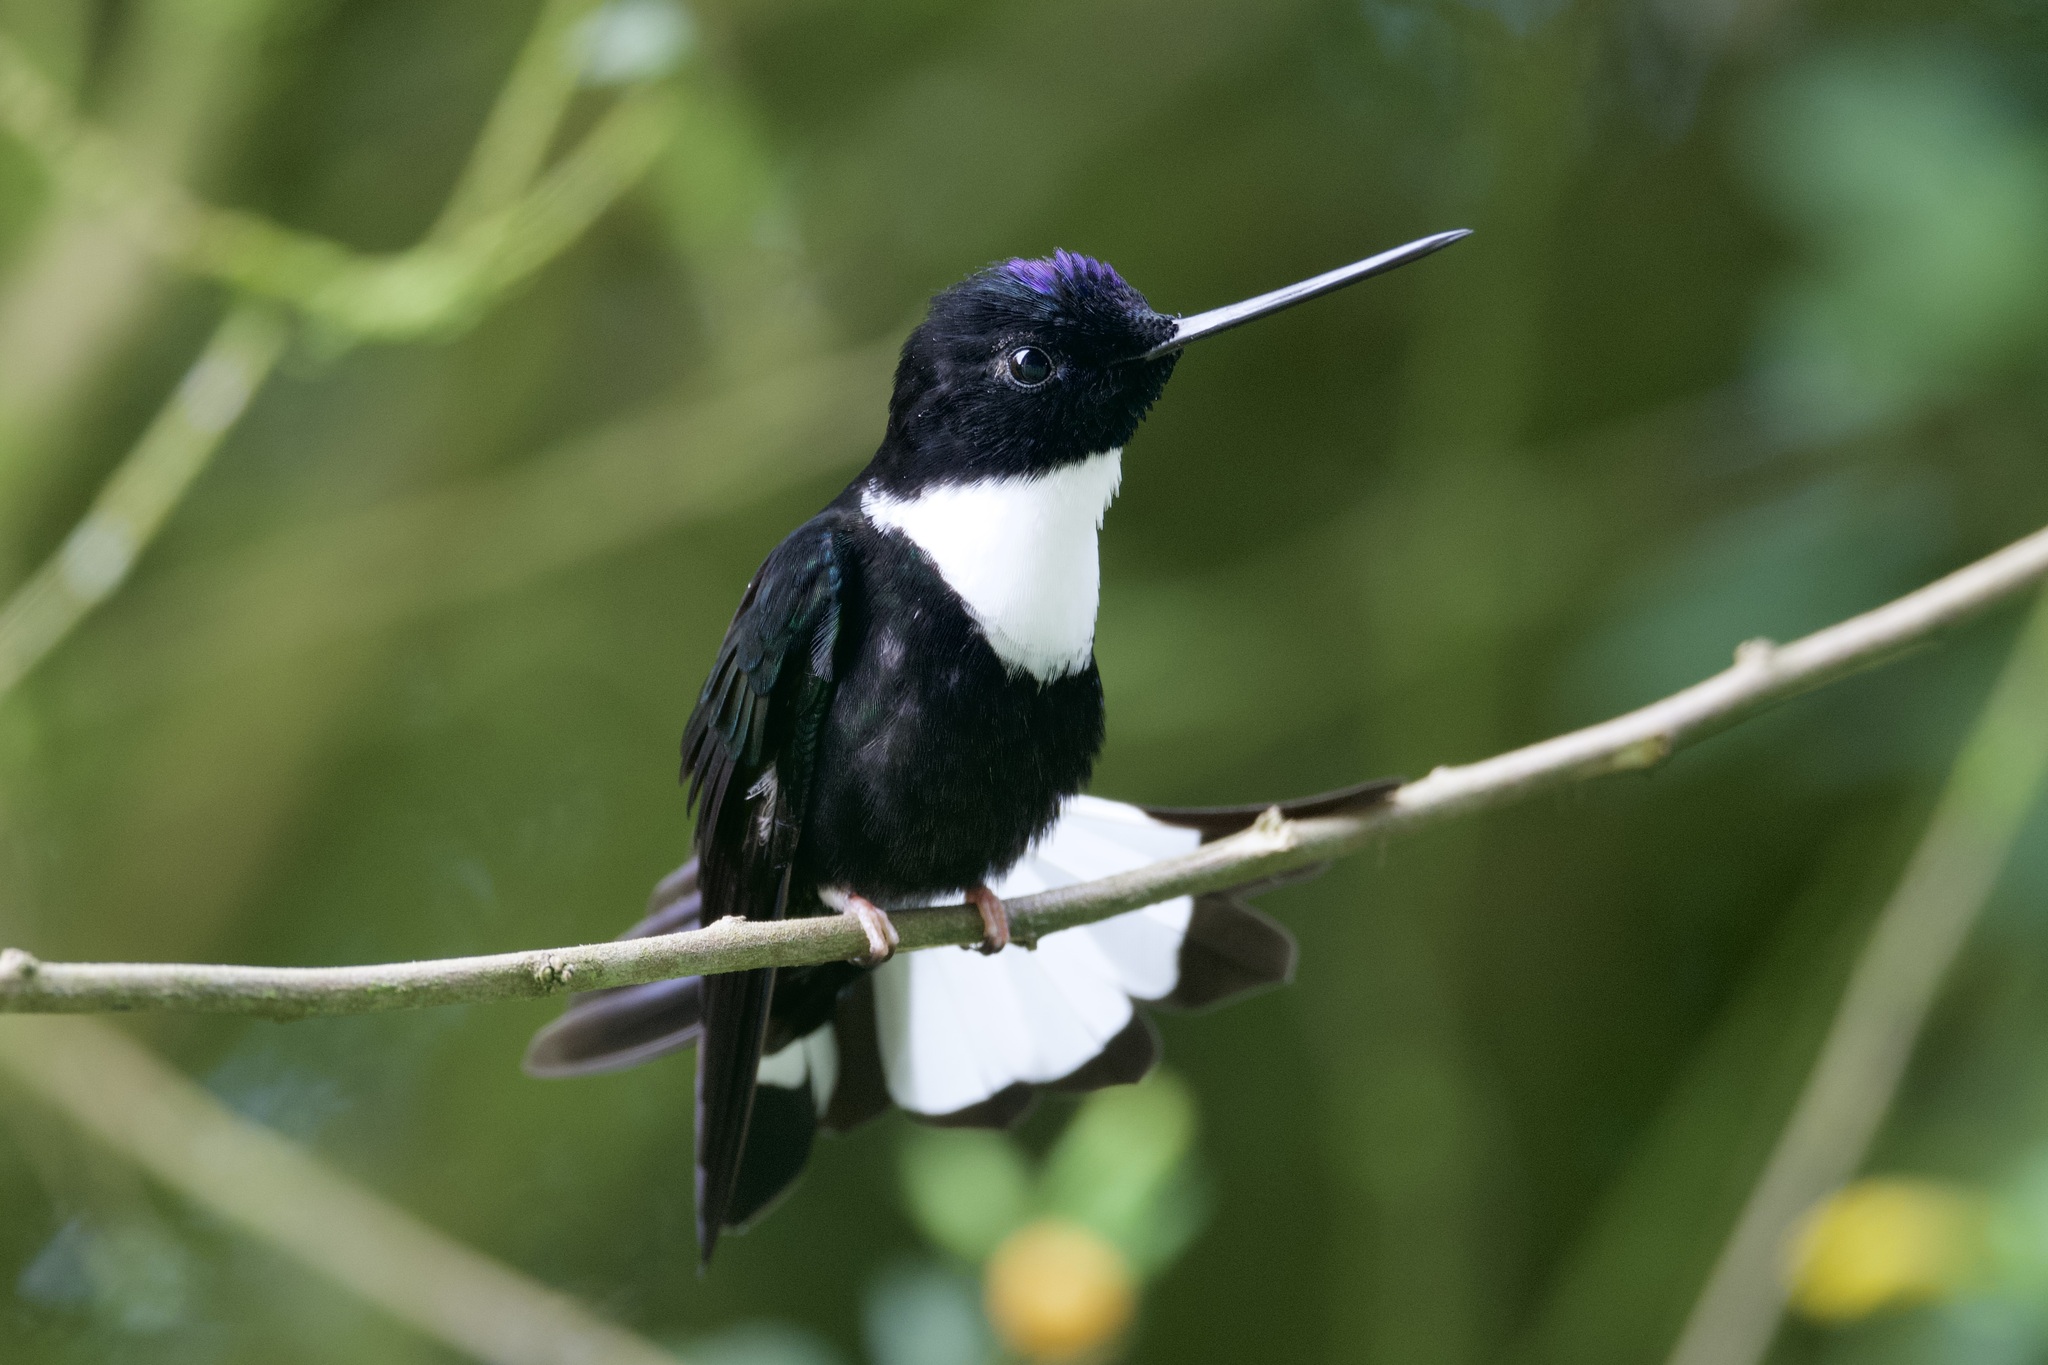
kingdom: Animalia
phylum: Chordata
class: Aves
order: Apodiformes
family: Trochilidae
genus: Coeligena
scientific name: Coeligena torquata
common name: Collared inca
